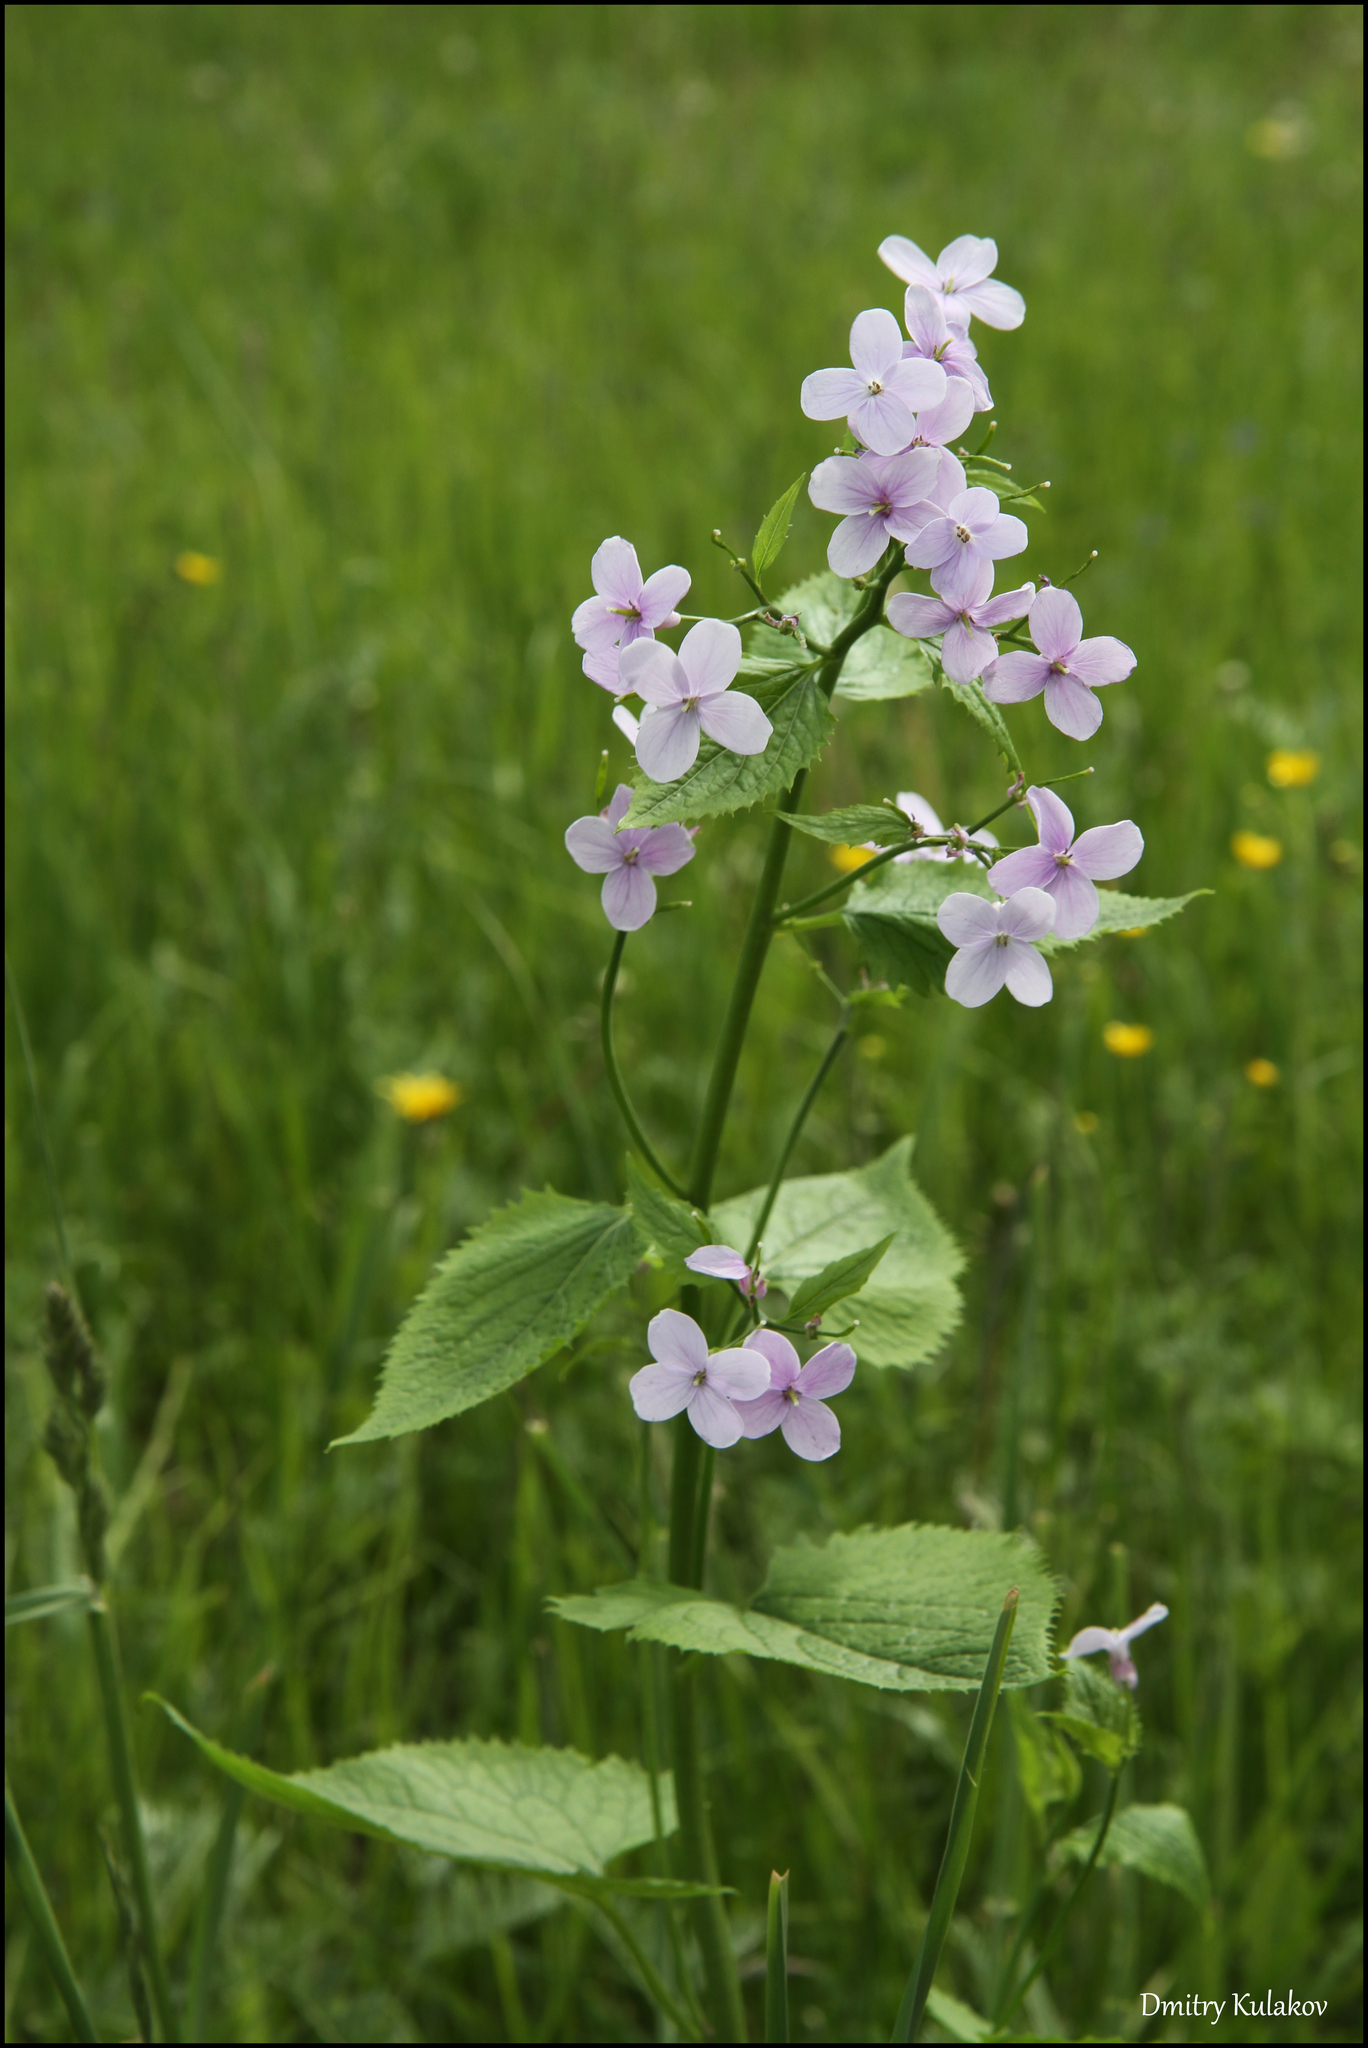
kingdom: Plantae
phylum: Tracheophyta
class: Magnoliopsida
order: Brassicales
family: Brassicaceae
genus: Lunaria
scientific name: Lunaria rediviva
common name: Perennial honesty
